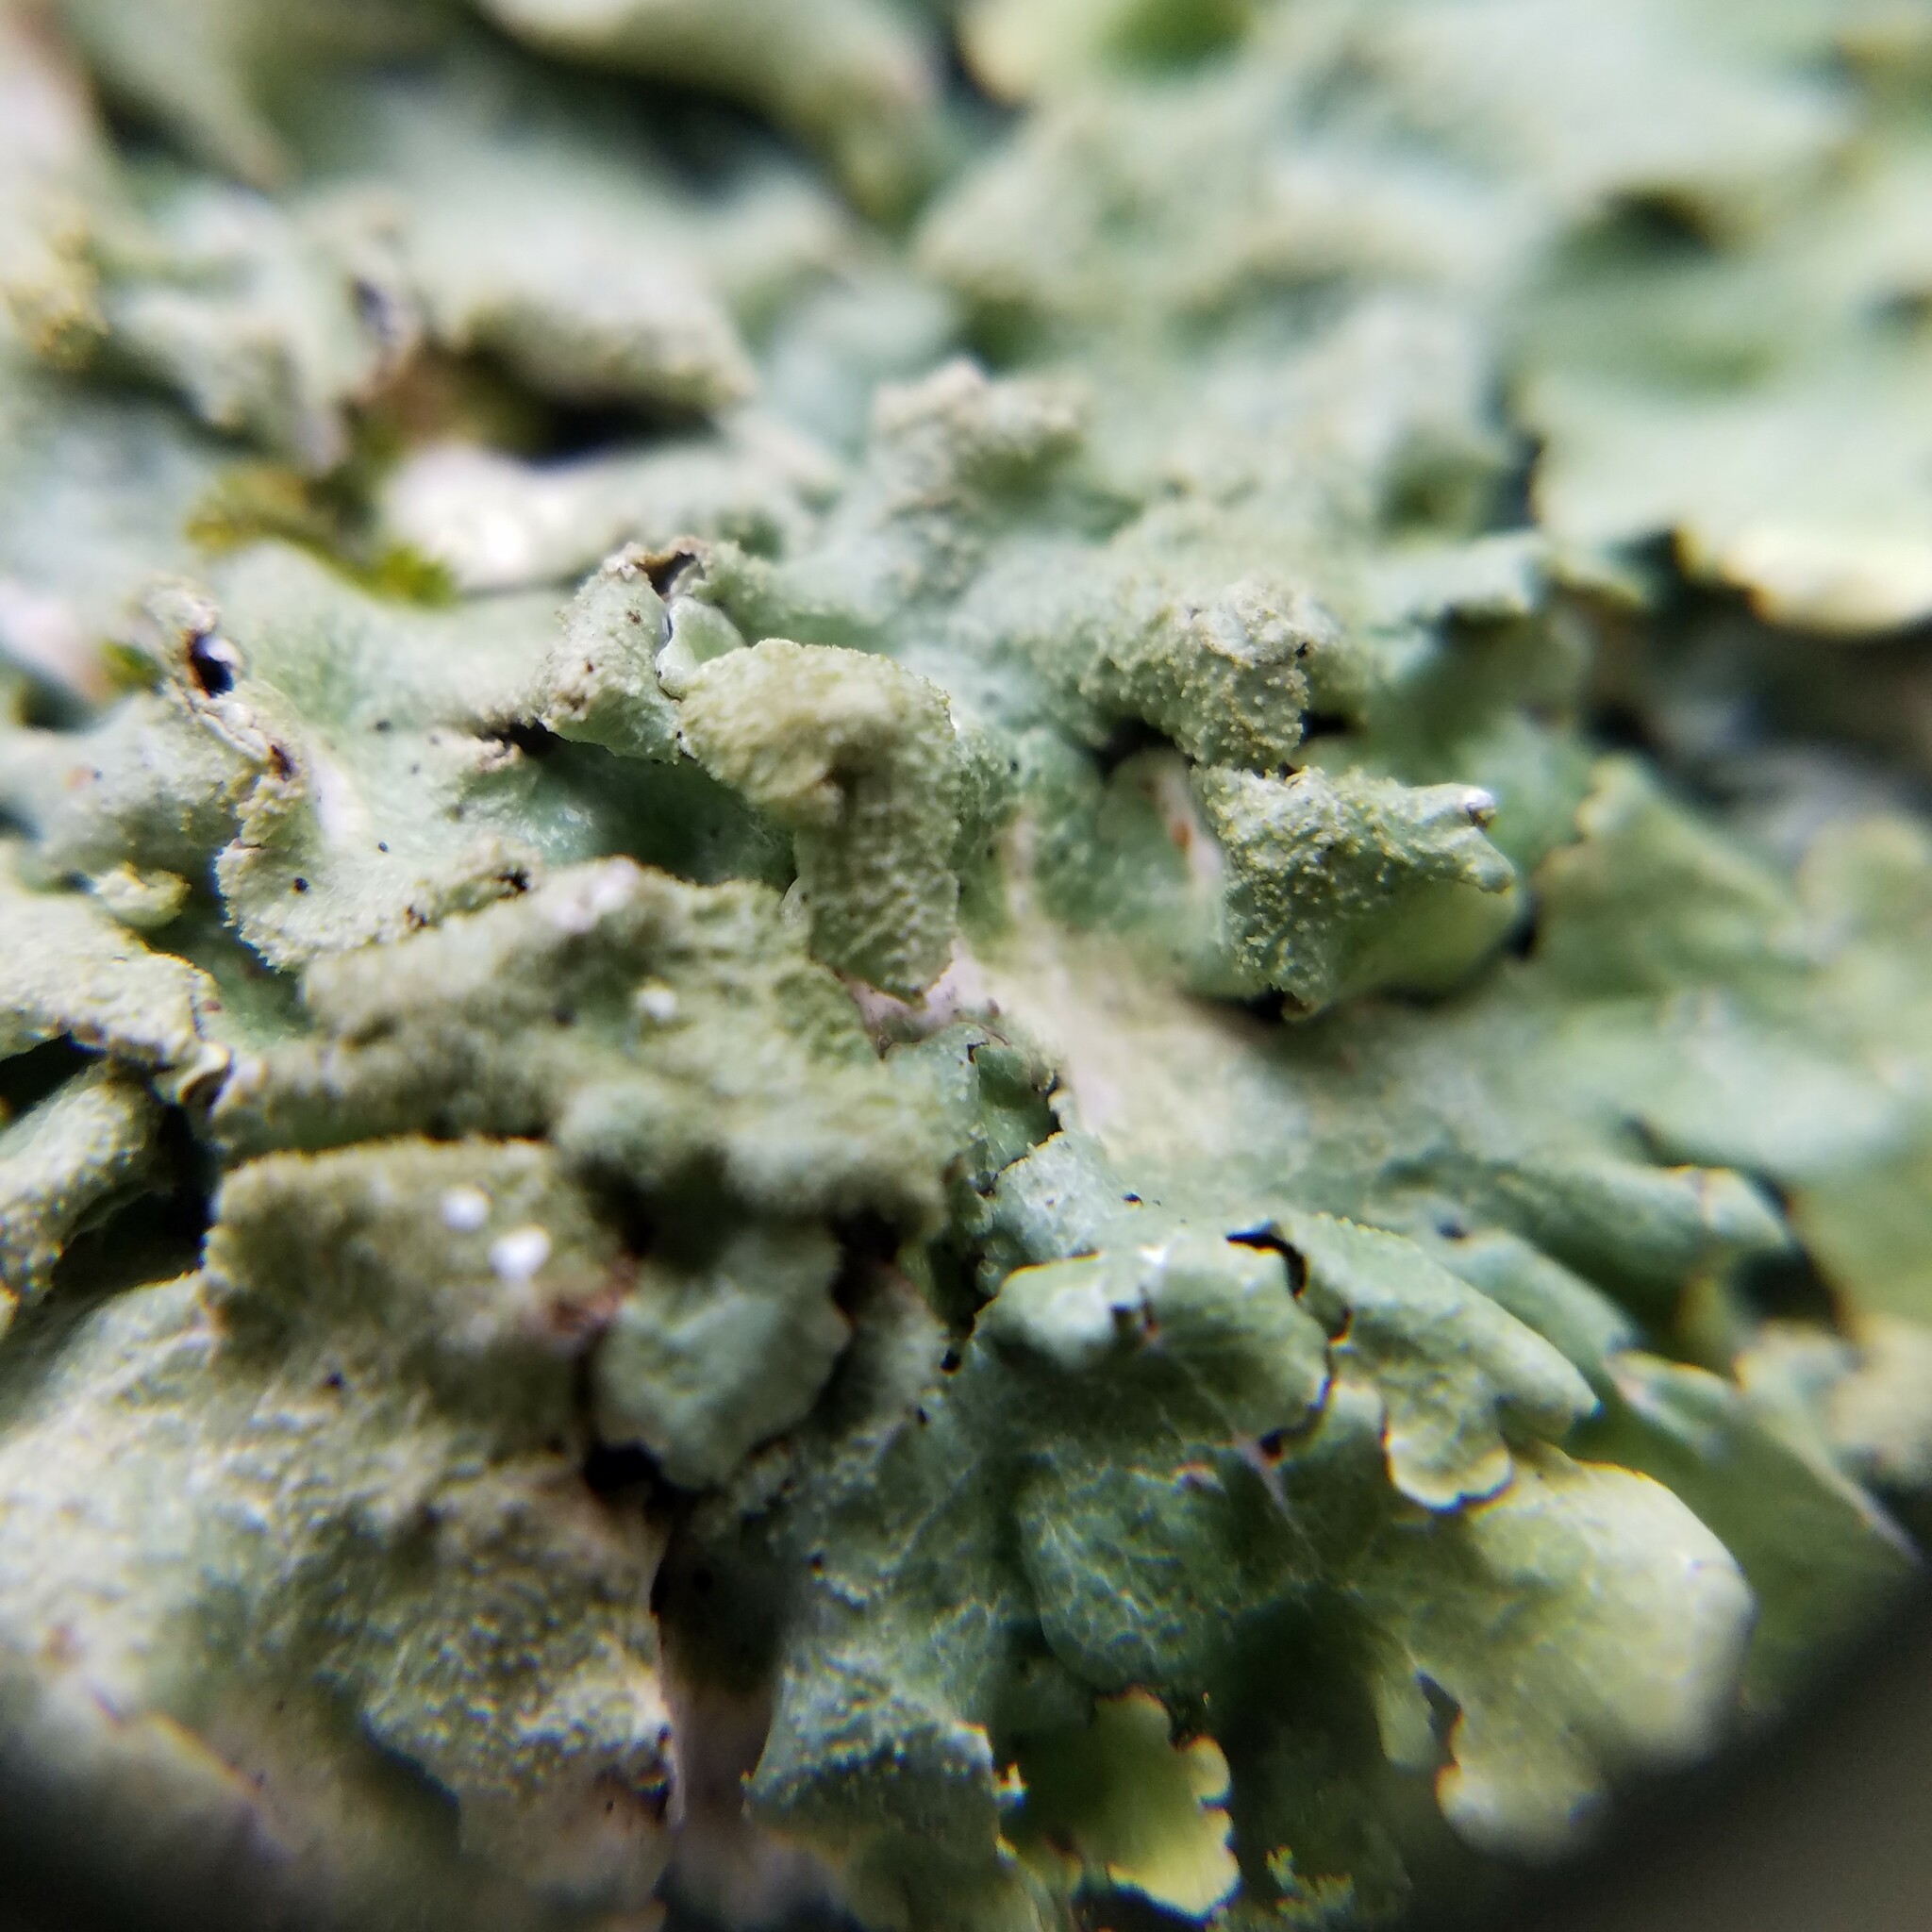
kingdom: Fungi
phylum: Ascomycota
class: Lecanoromycetes
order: Lecanorales
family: Parmeliaceae
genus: Canoparmelia
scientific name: Canoparmelia caroliniana
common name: Carolina shield lichen
